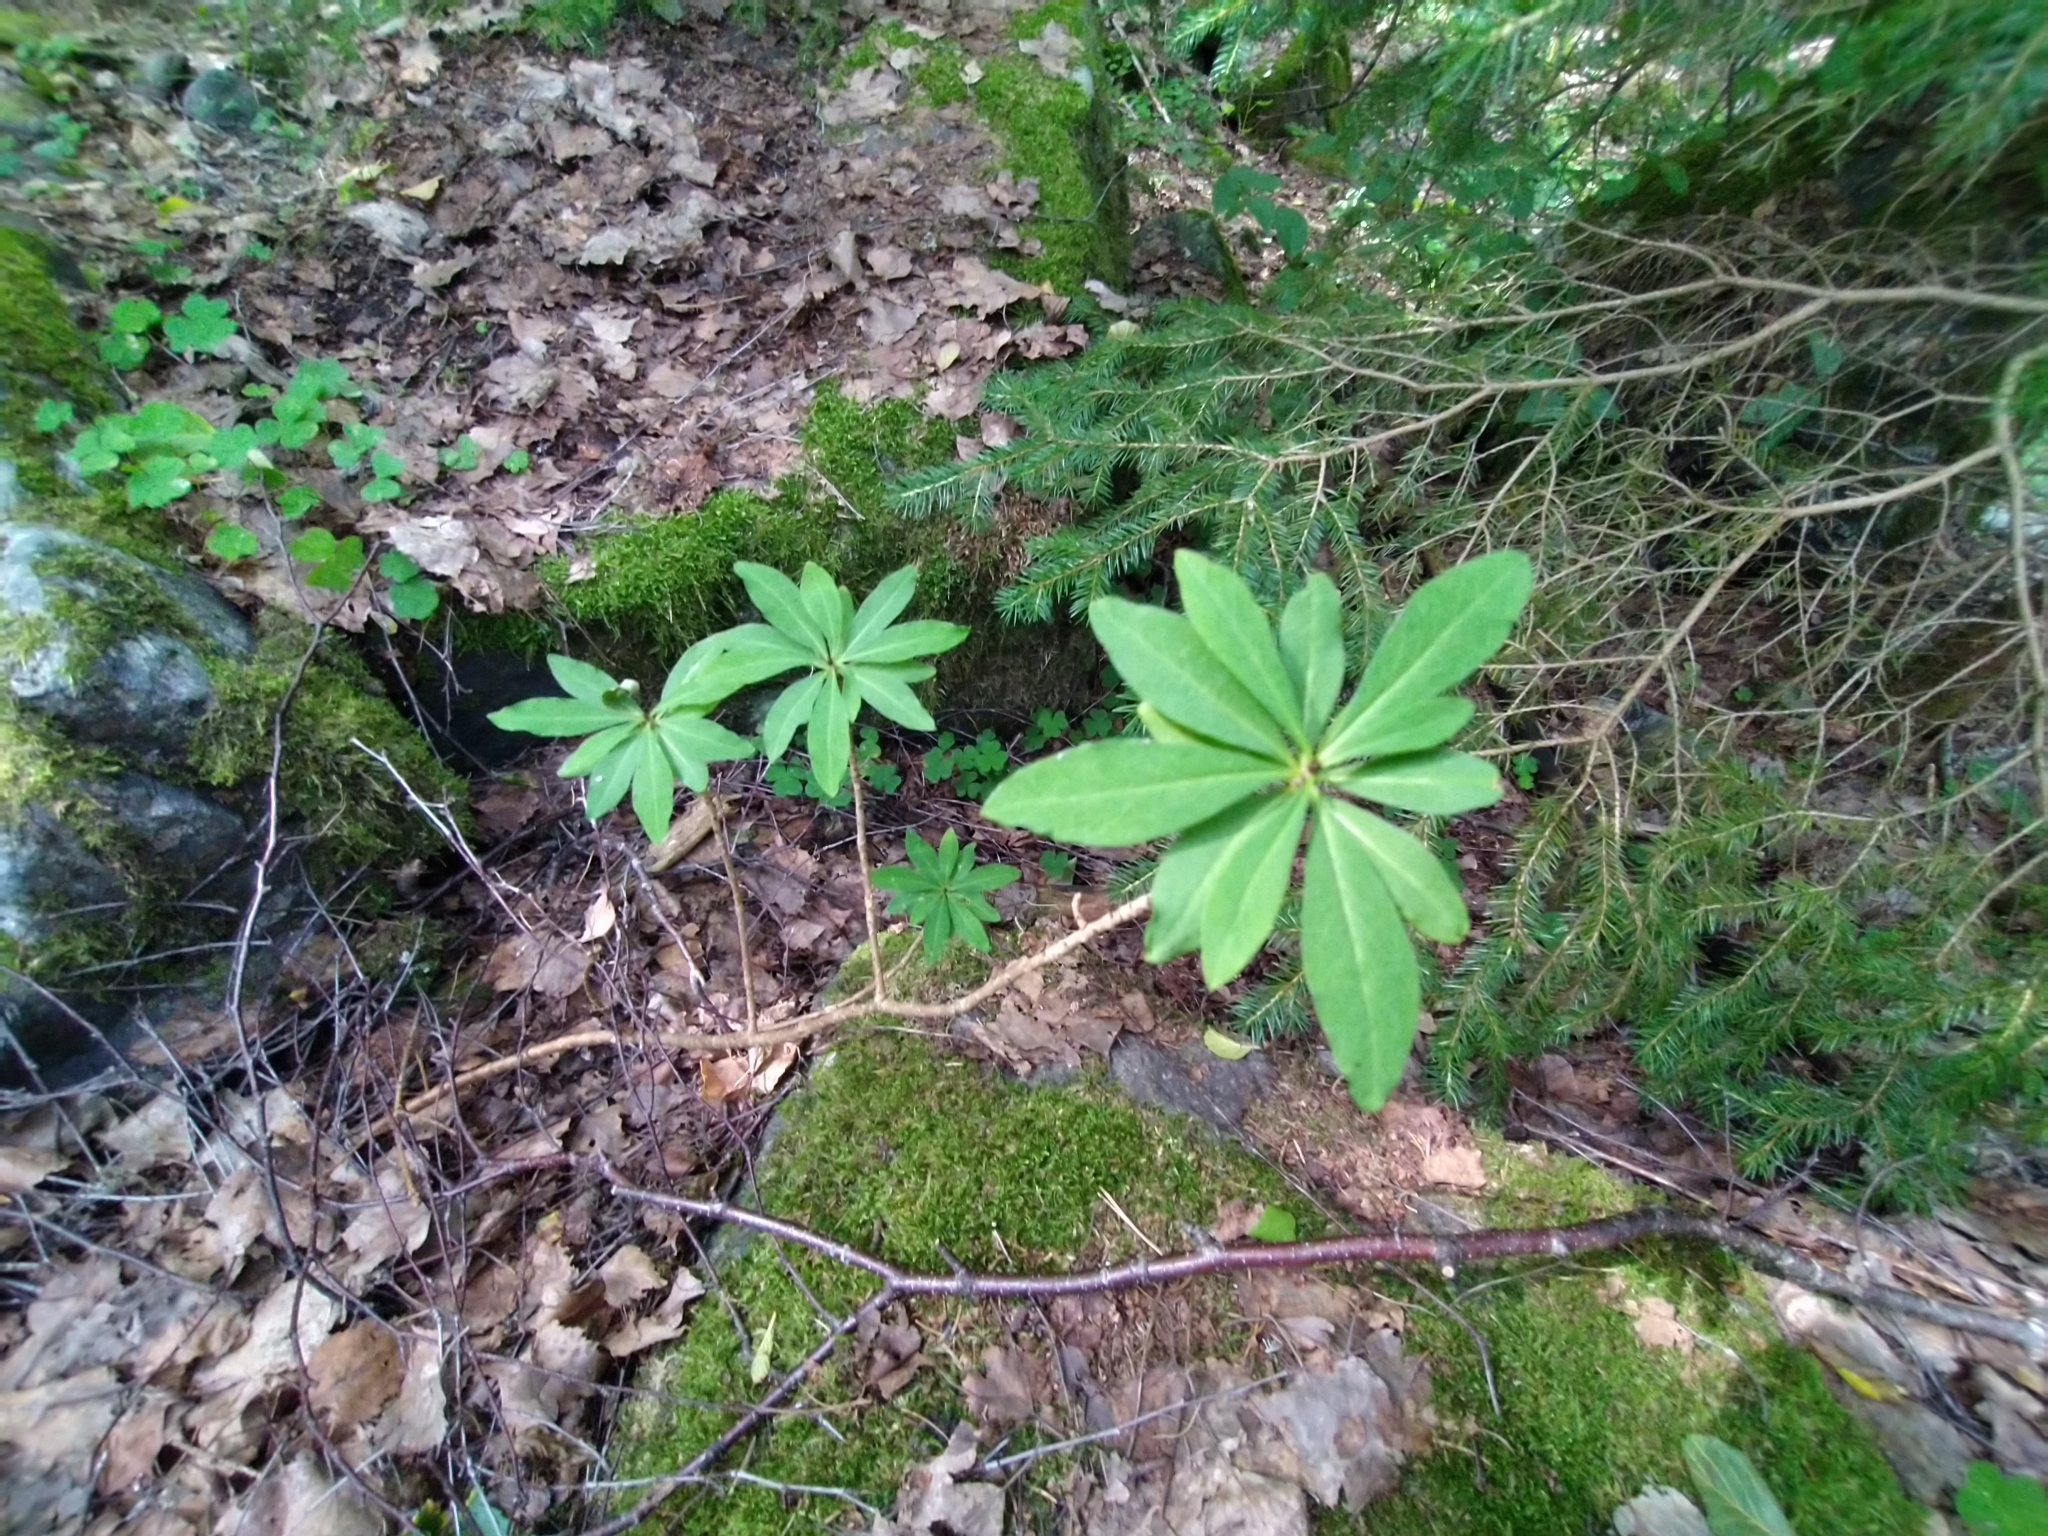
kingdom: Plantae
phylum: Tracheophyta
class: Magnoliopsida
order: Malvales
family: Thymelaeaceae
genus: Daphne
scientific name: Daphne mezereum
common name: Mezereon
